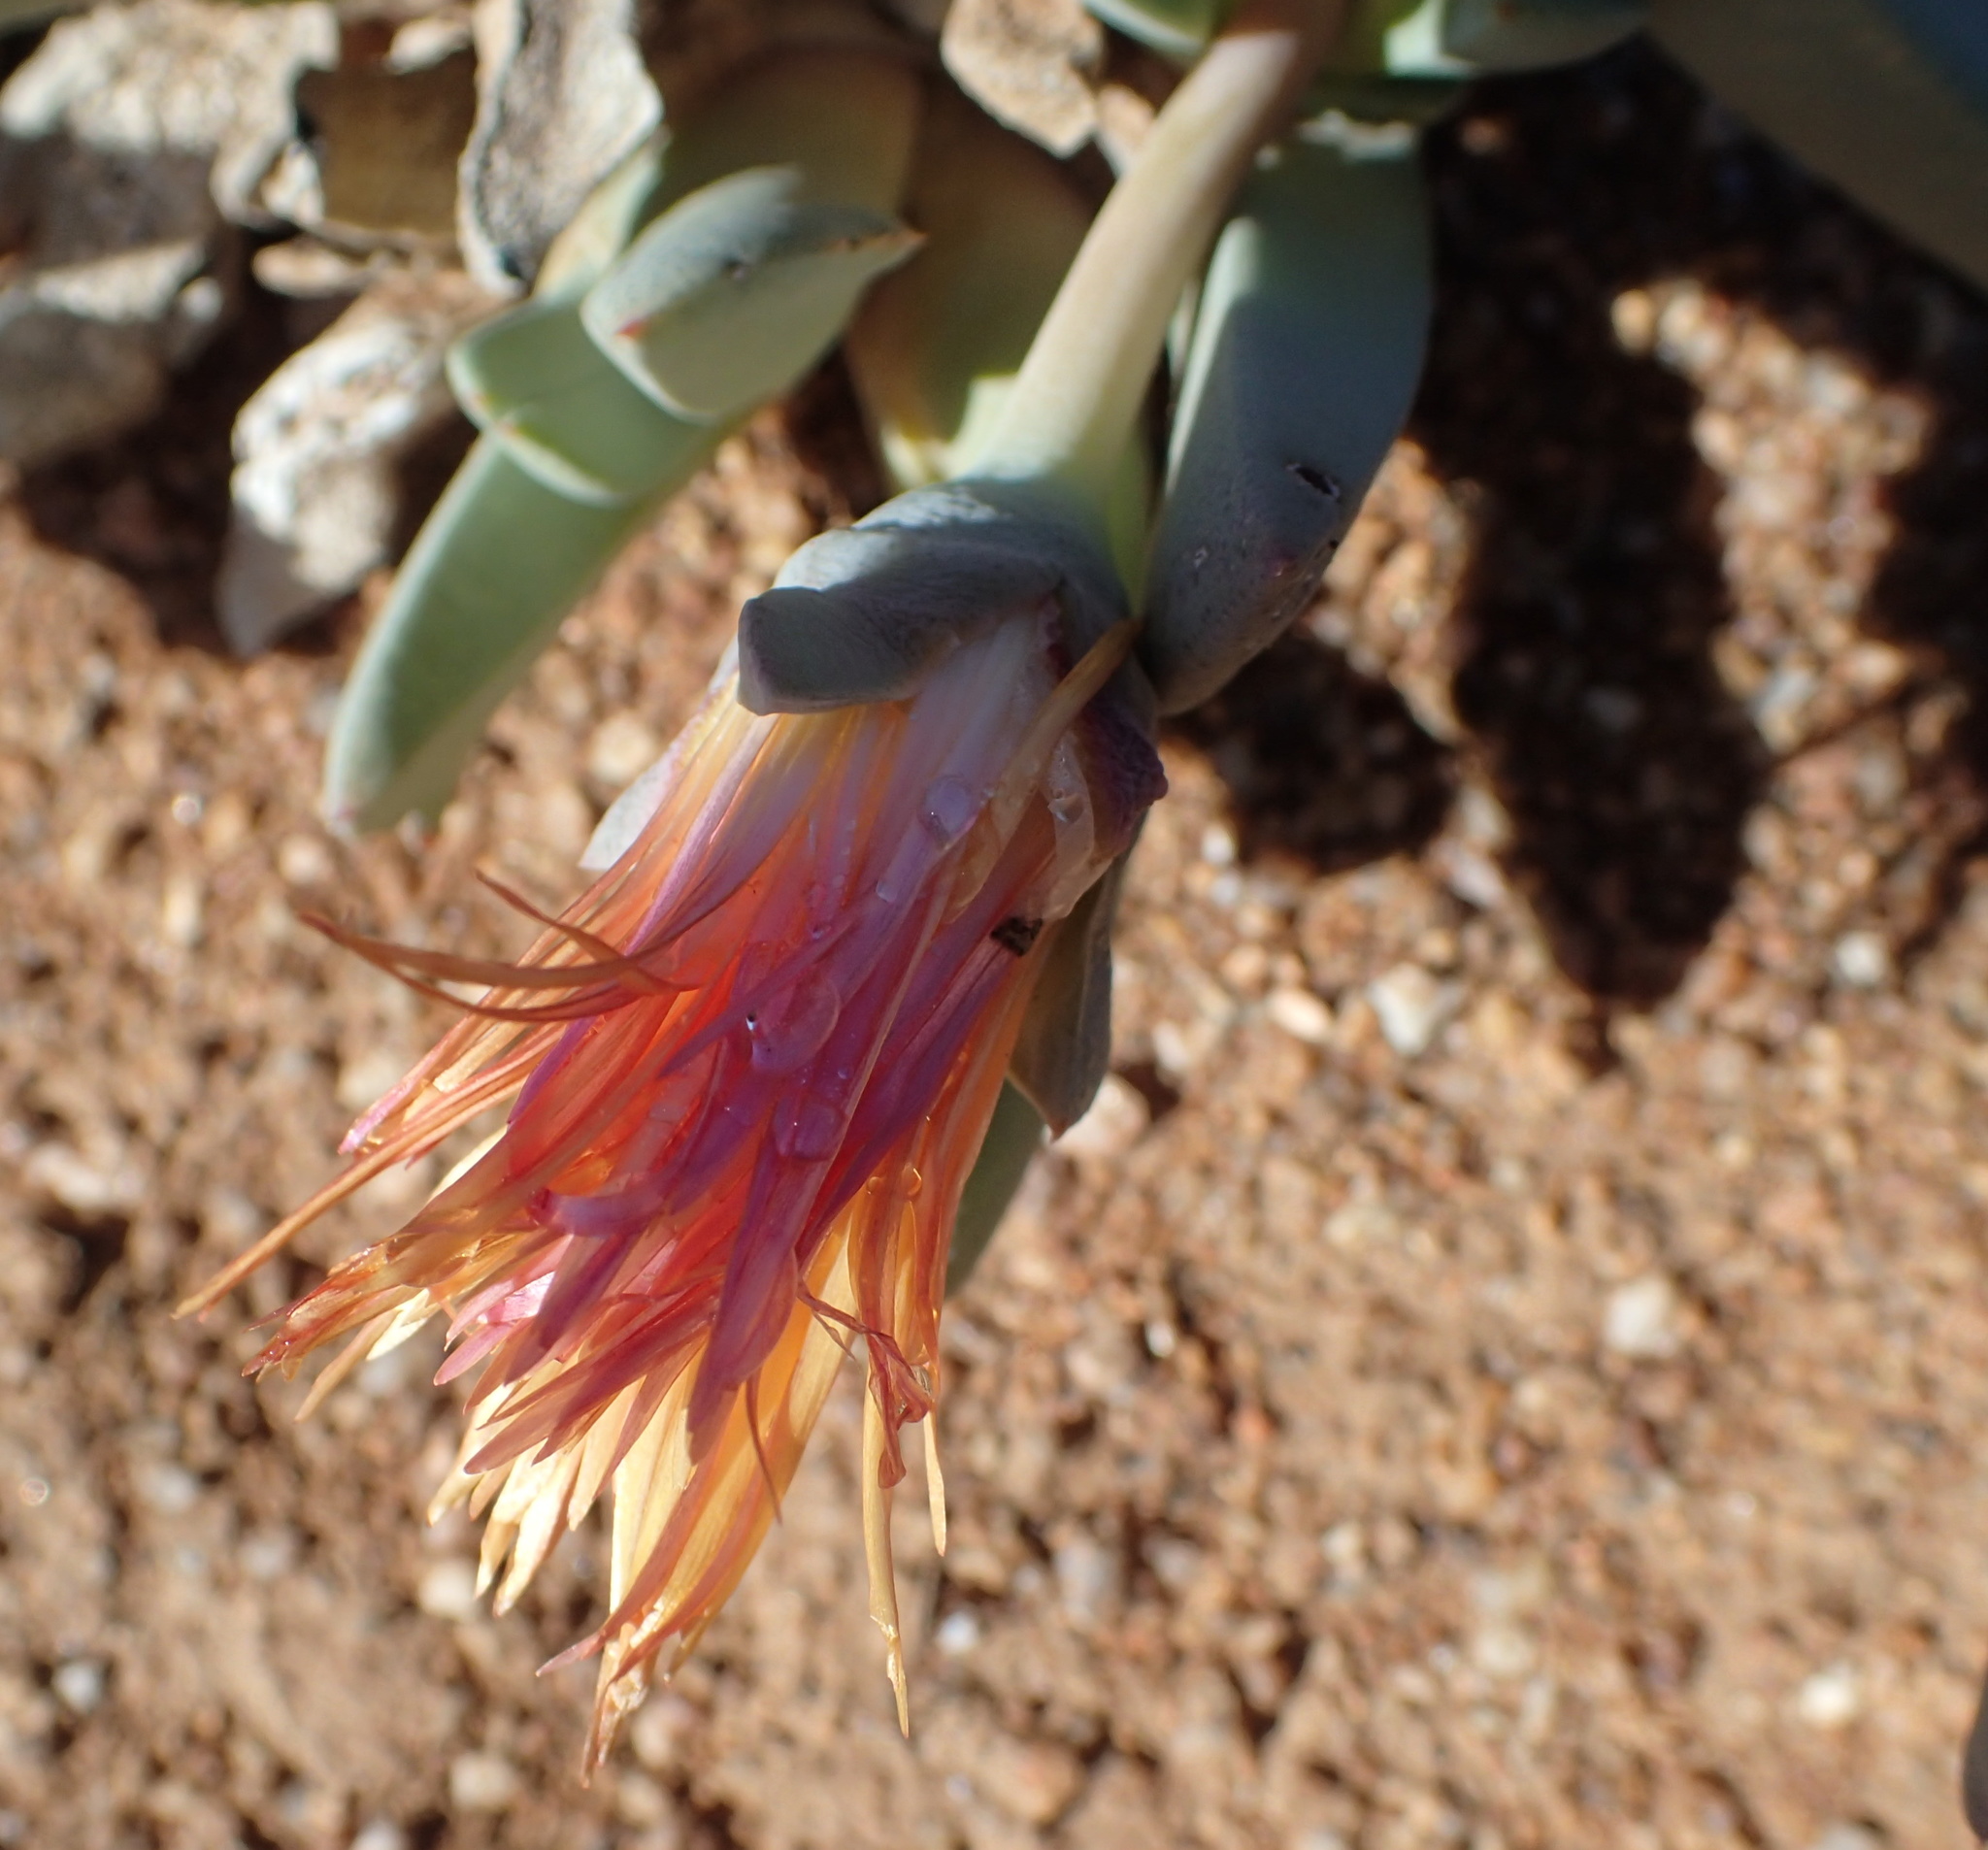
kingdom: Plantae
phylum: Tracheophyta
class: Magnoliopsida
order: Caryophyllales
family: Aizoaceae
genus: Cheiridopsis
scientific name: Cheiridopsis denticulata
